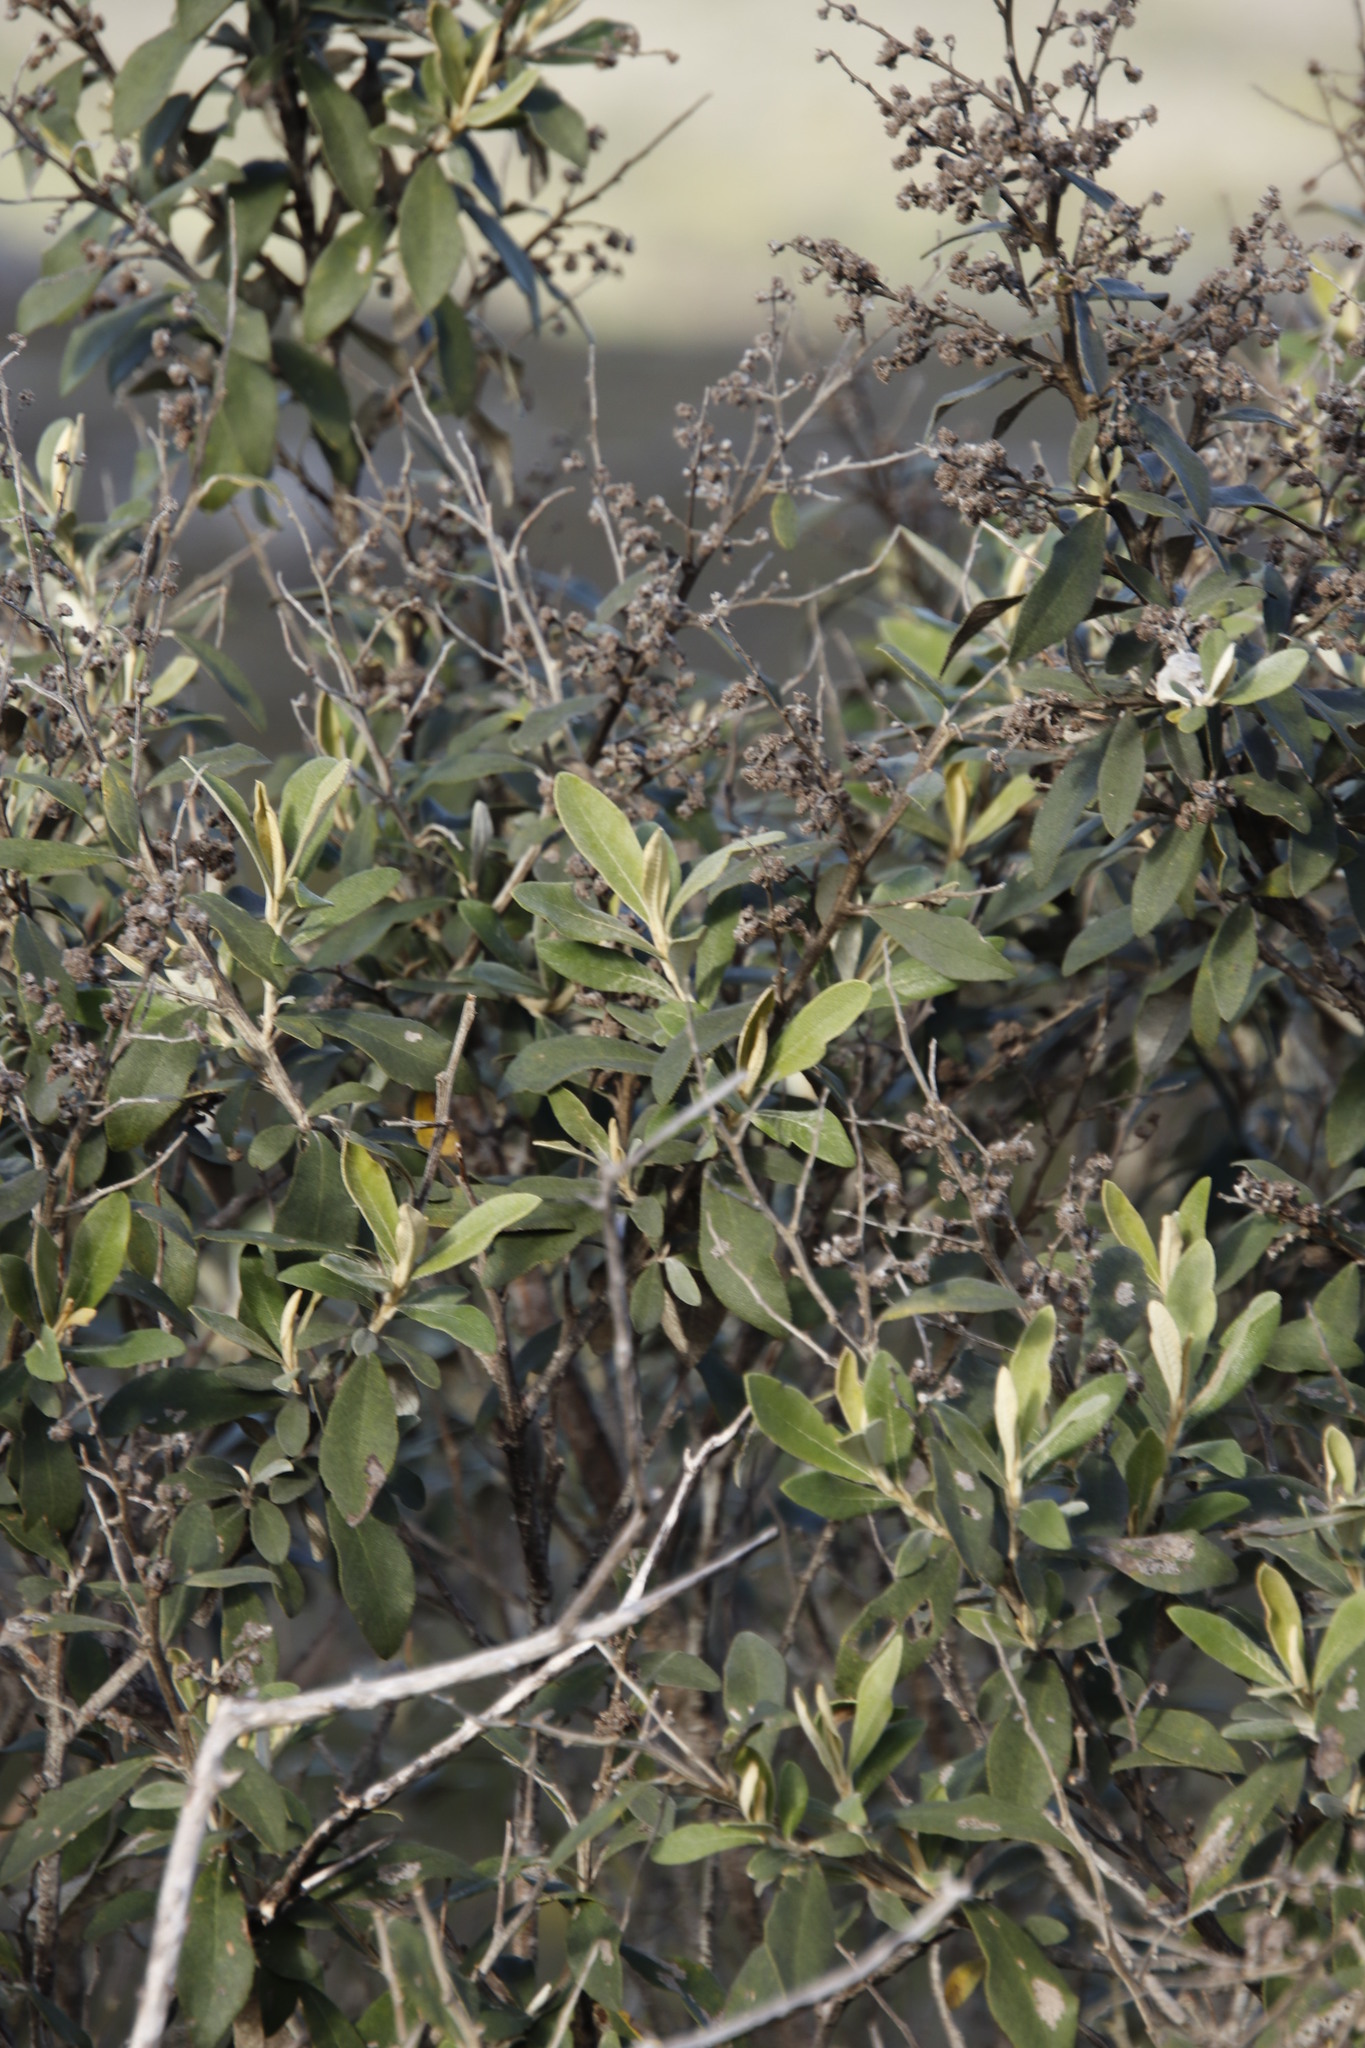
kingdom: Plantae
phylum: Tracheophyta
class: Magnoliopsida
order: Asterales
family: Asteraceae
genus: Tarchonanthus
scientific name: Tarchonanthus littoralis
